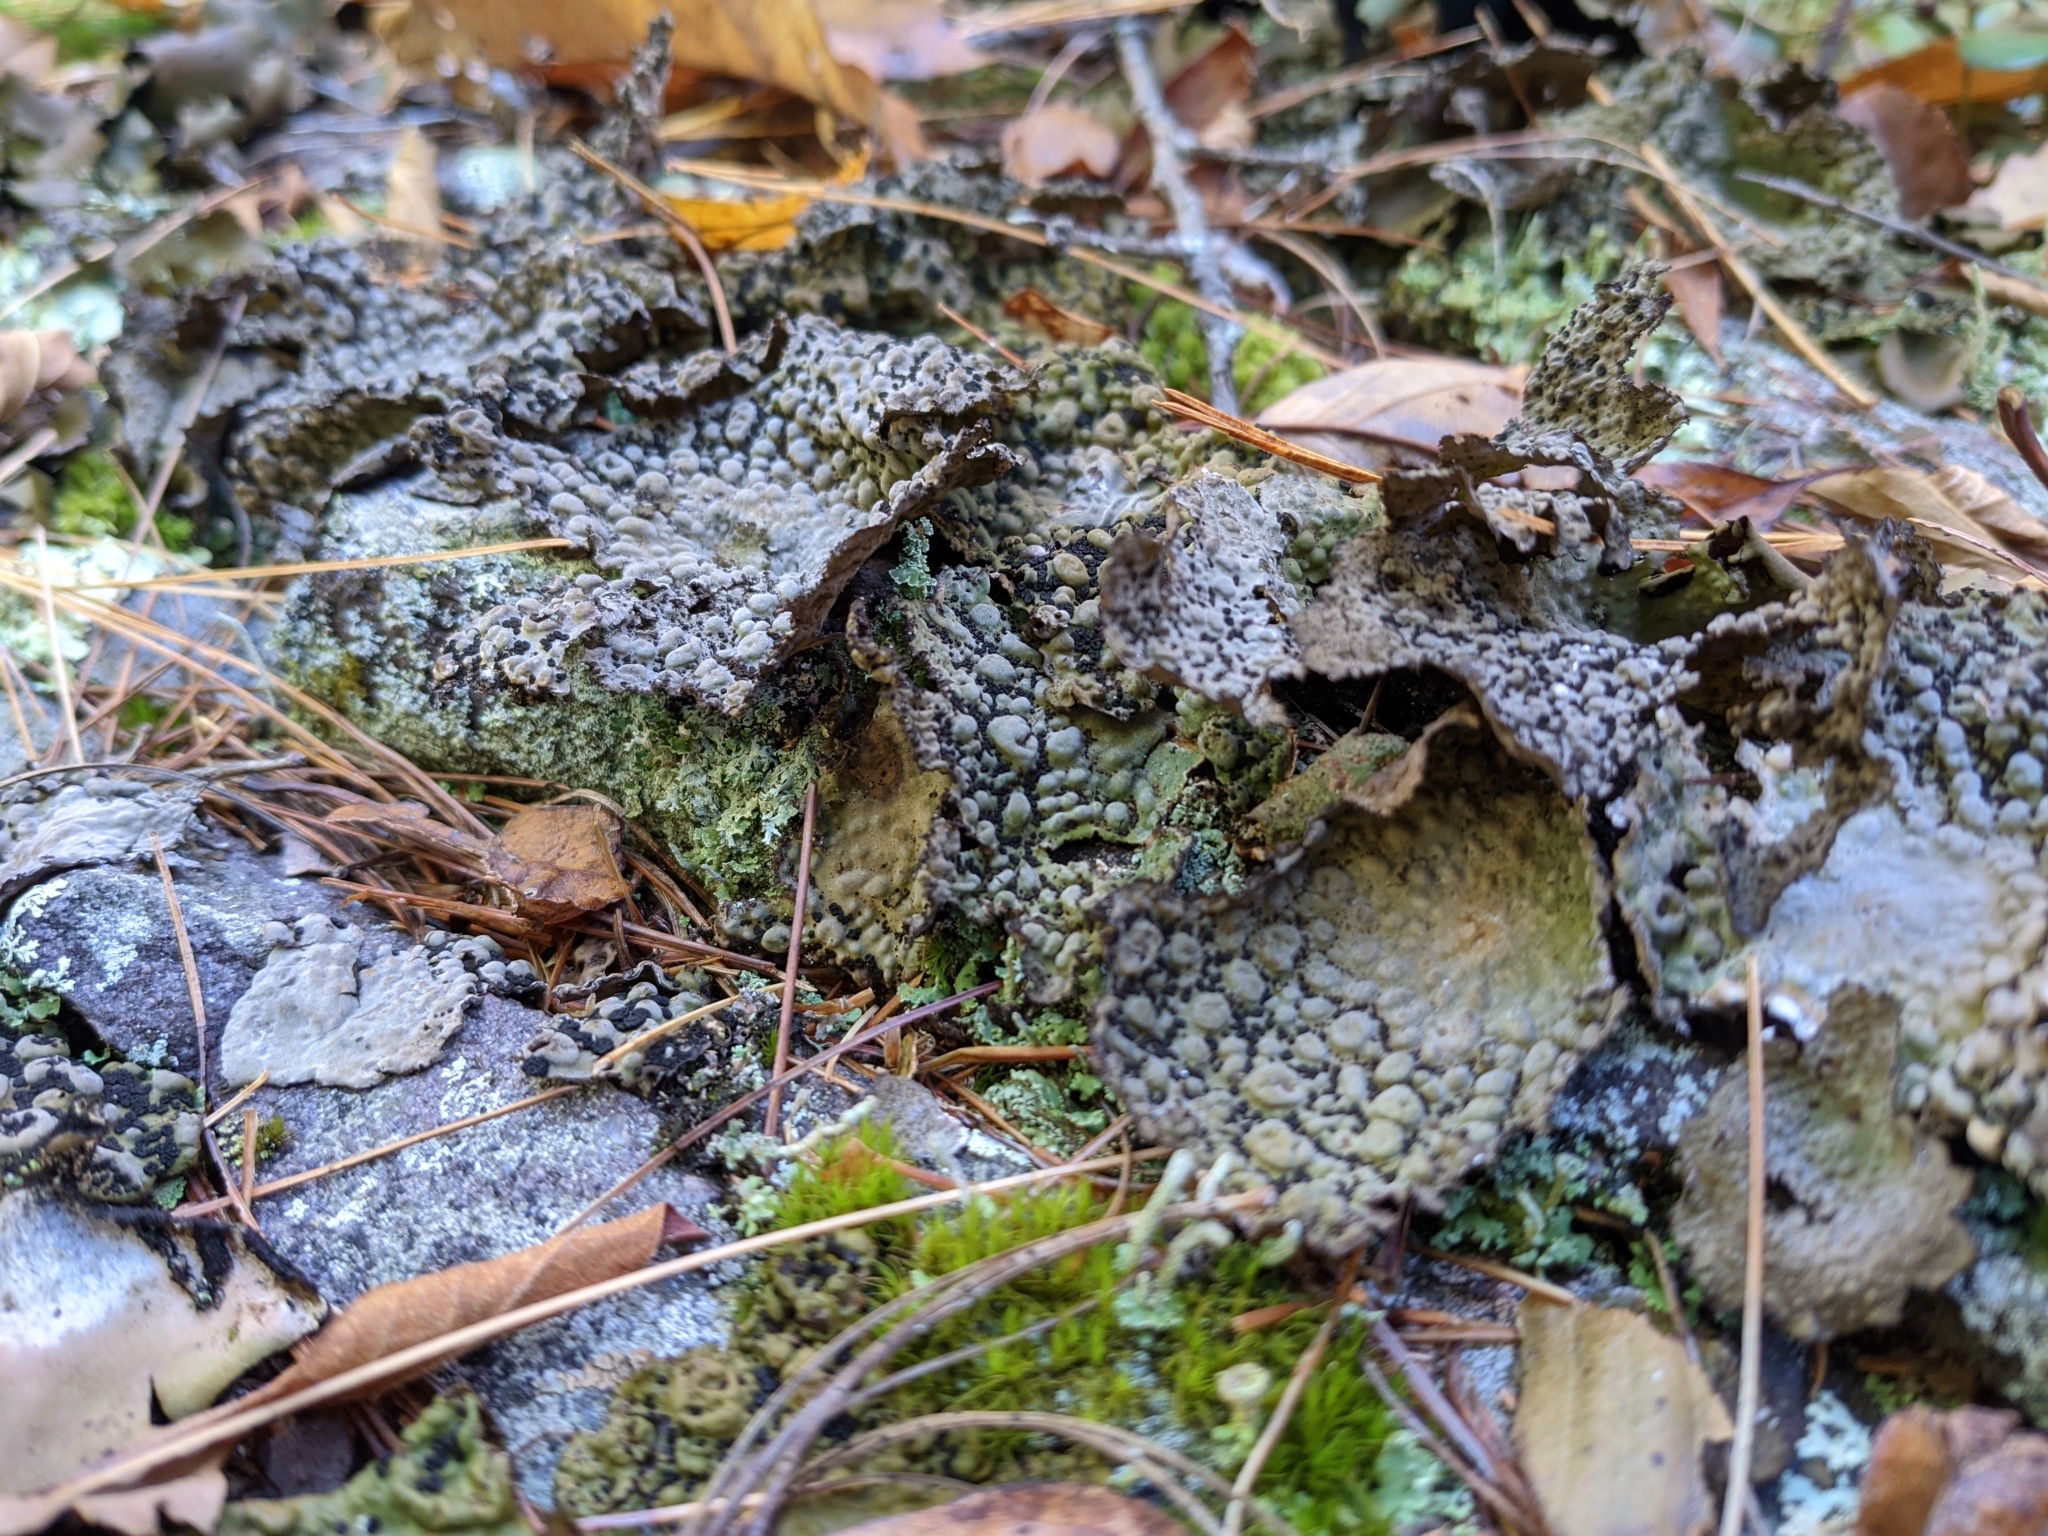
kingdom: Fungi
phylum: Ascomycota
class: Lecanoromycetes
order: Umbilicariales
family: Umbilicariaceae
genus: Lasallia
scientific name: Lasallia papulosa
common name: Common toadskin lichen
